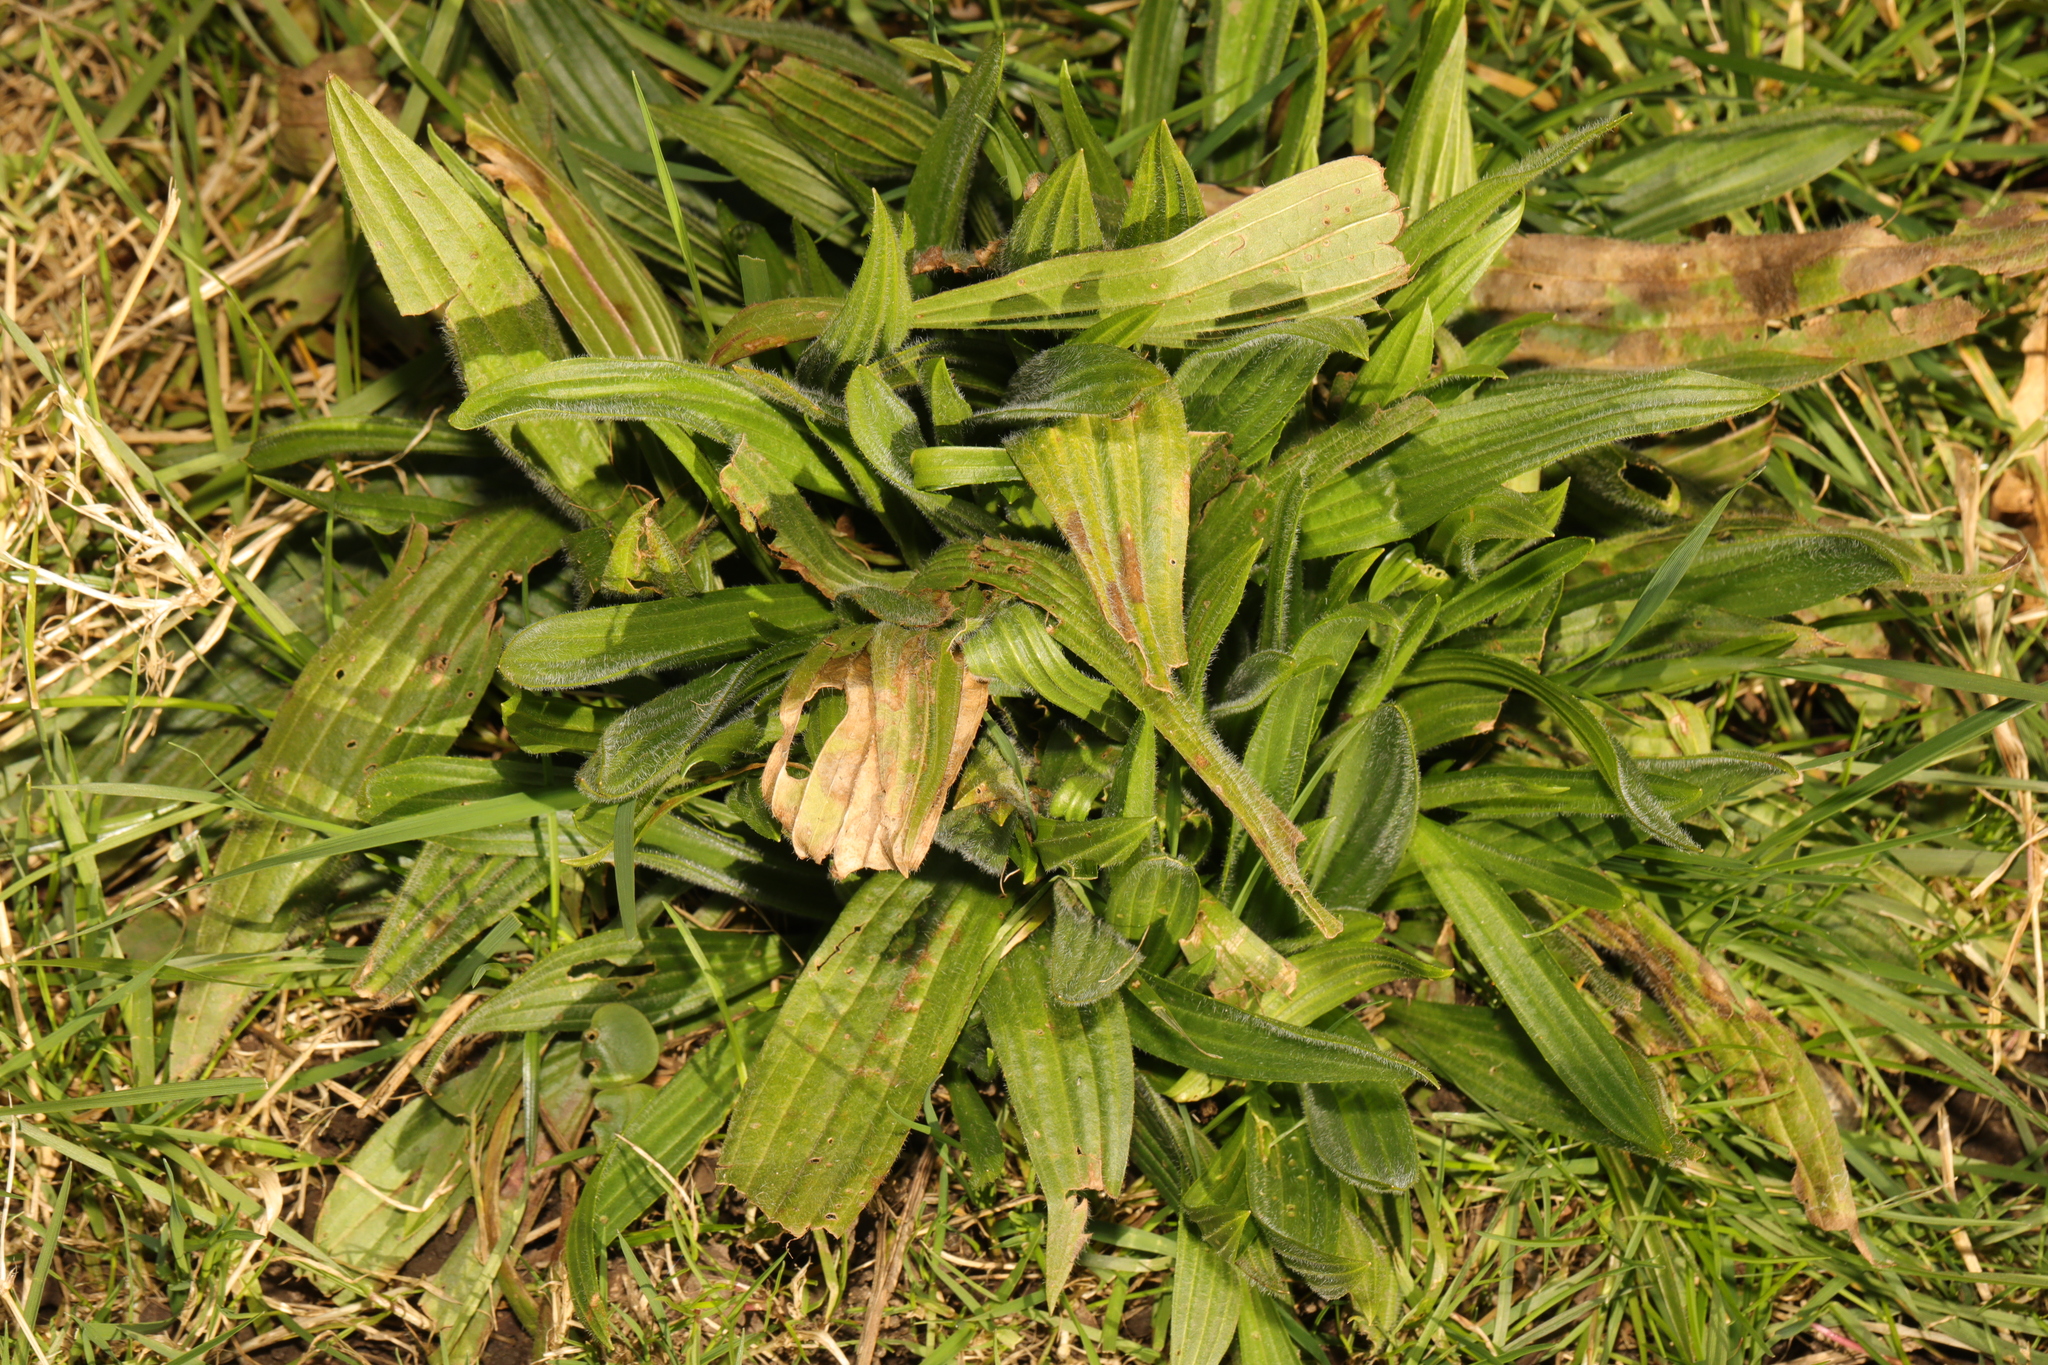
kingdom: Plantae
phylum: Tracheophyta
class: Magnoliopsida
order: Lamiales
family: Plantaginaceae
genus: Plantago
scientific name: Plantago lanceolata
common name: Ribwort plantain
